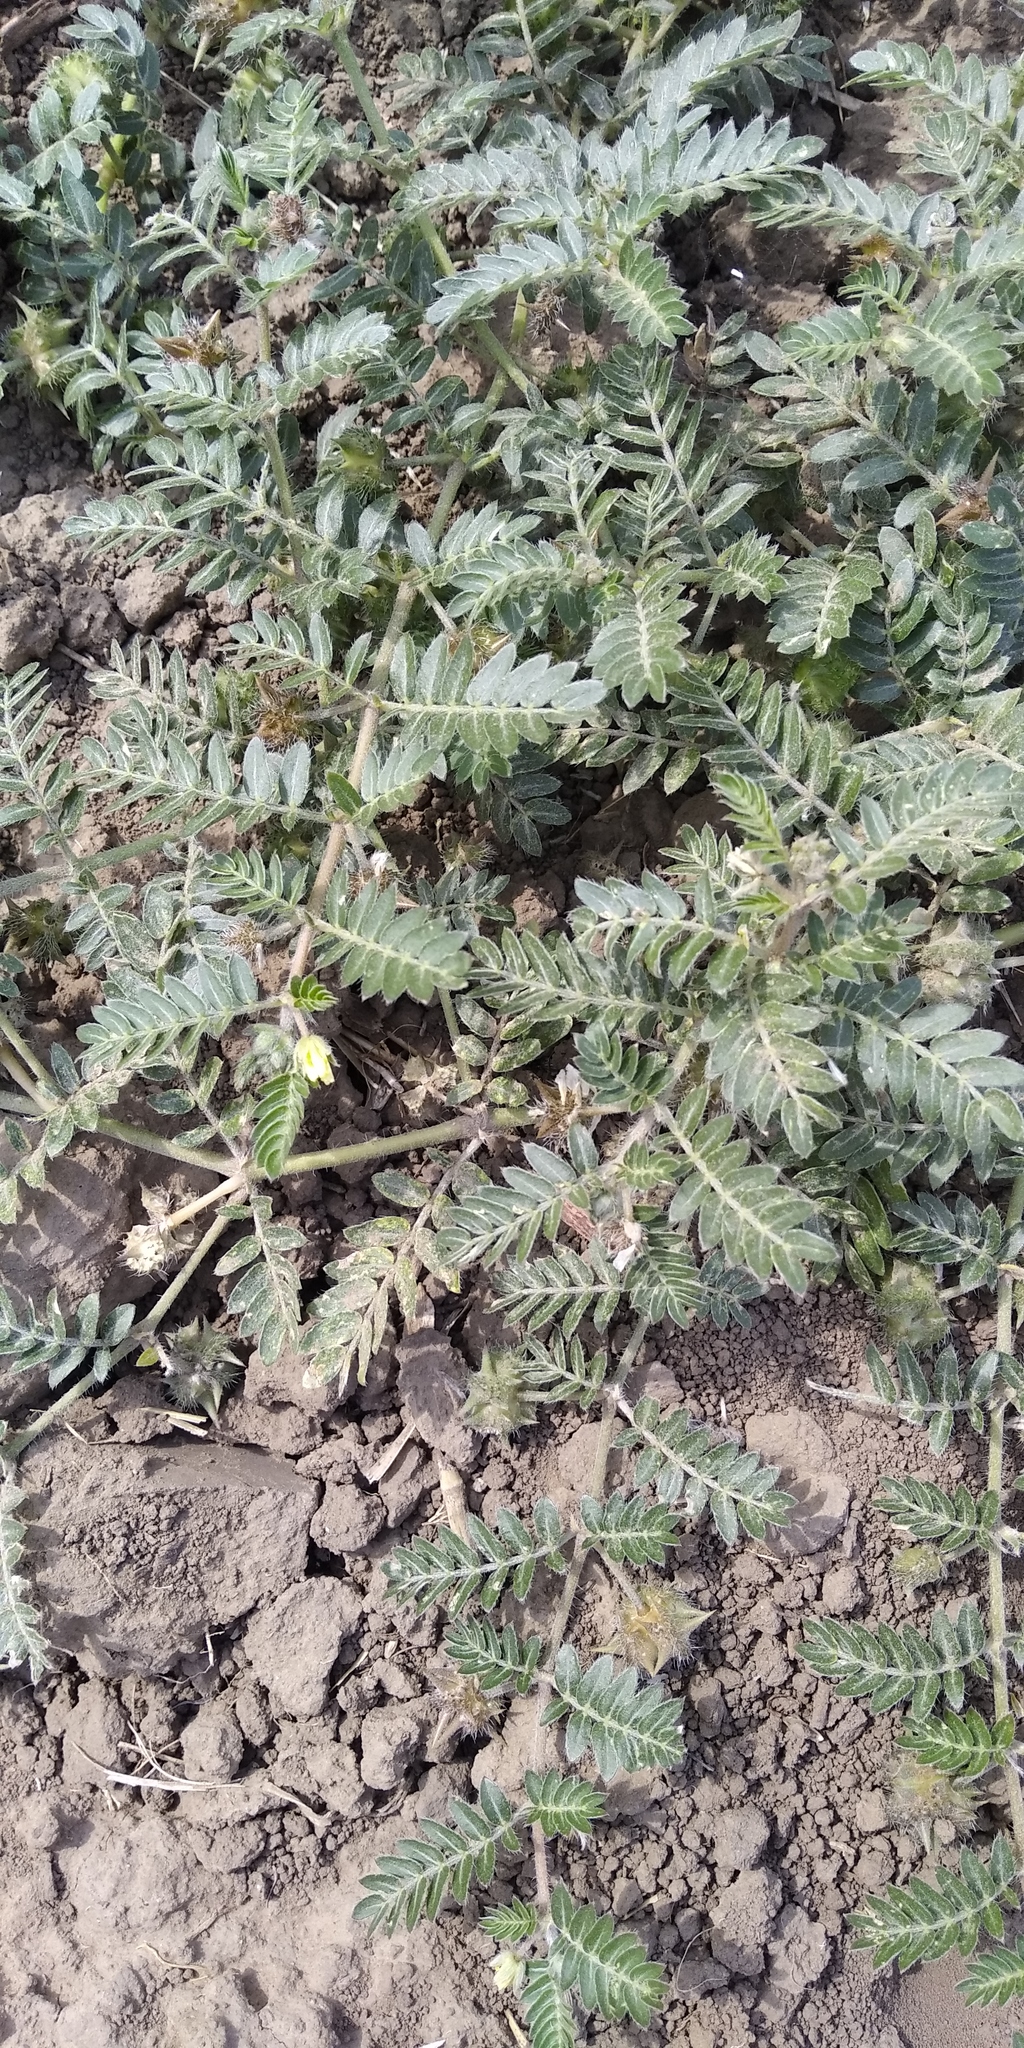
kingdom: Plantae
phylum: Tracheophyta
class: Magnoliopsida
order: Zygophyllales
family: Zygophyllaceae
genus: Tribulus
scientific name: Tribulus terrestris
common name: Puncturevine
